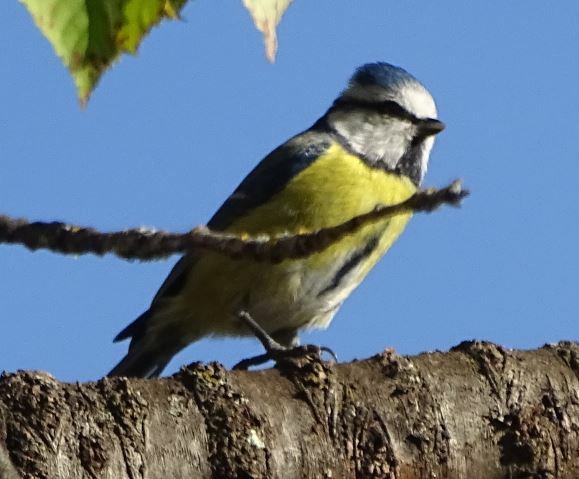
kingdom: Animalia
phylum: Chordata
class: Aves
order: Passeriformes
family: Paridae
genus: Cyanistes
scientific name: Cyanistes caeruleus
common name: Eurasian blue tit
